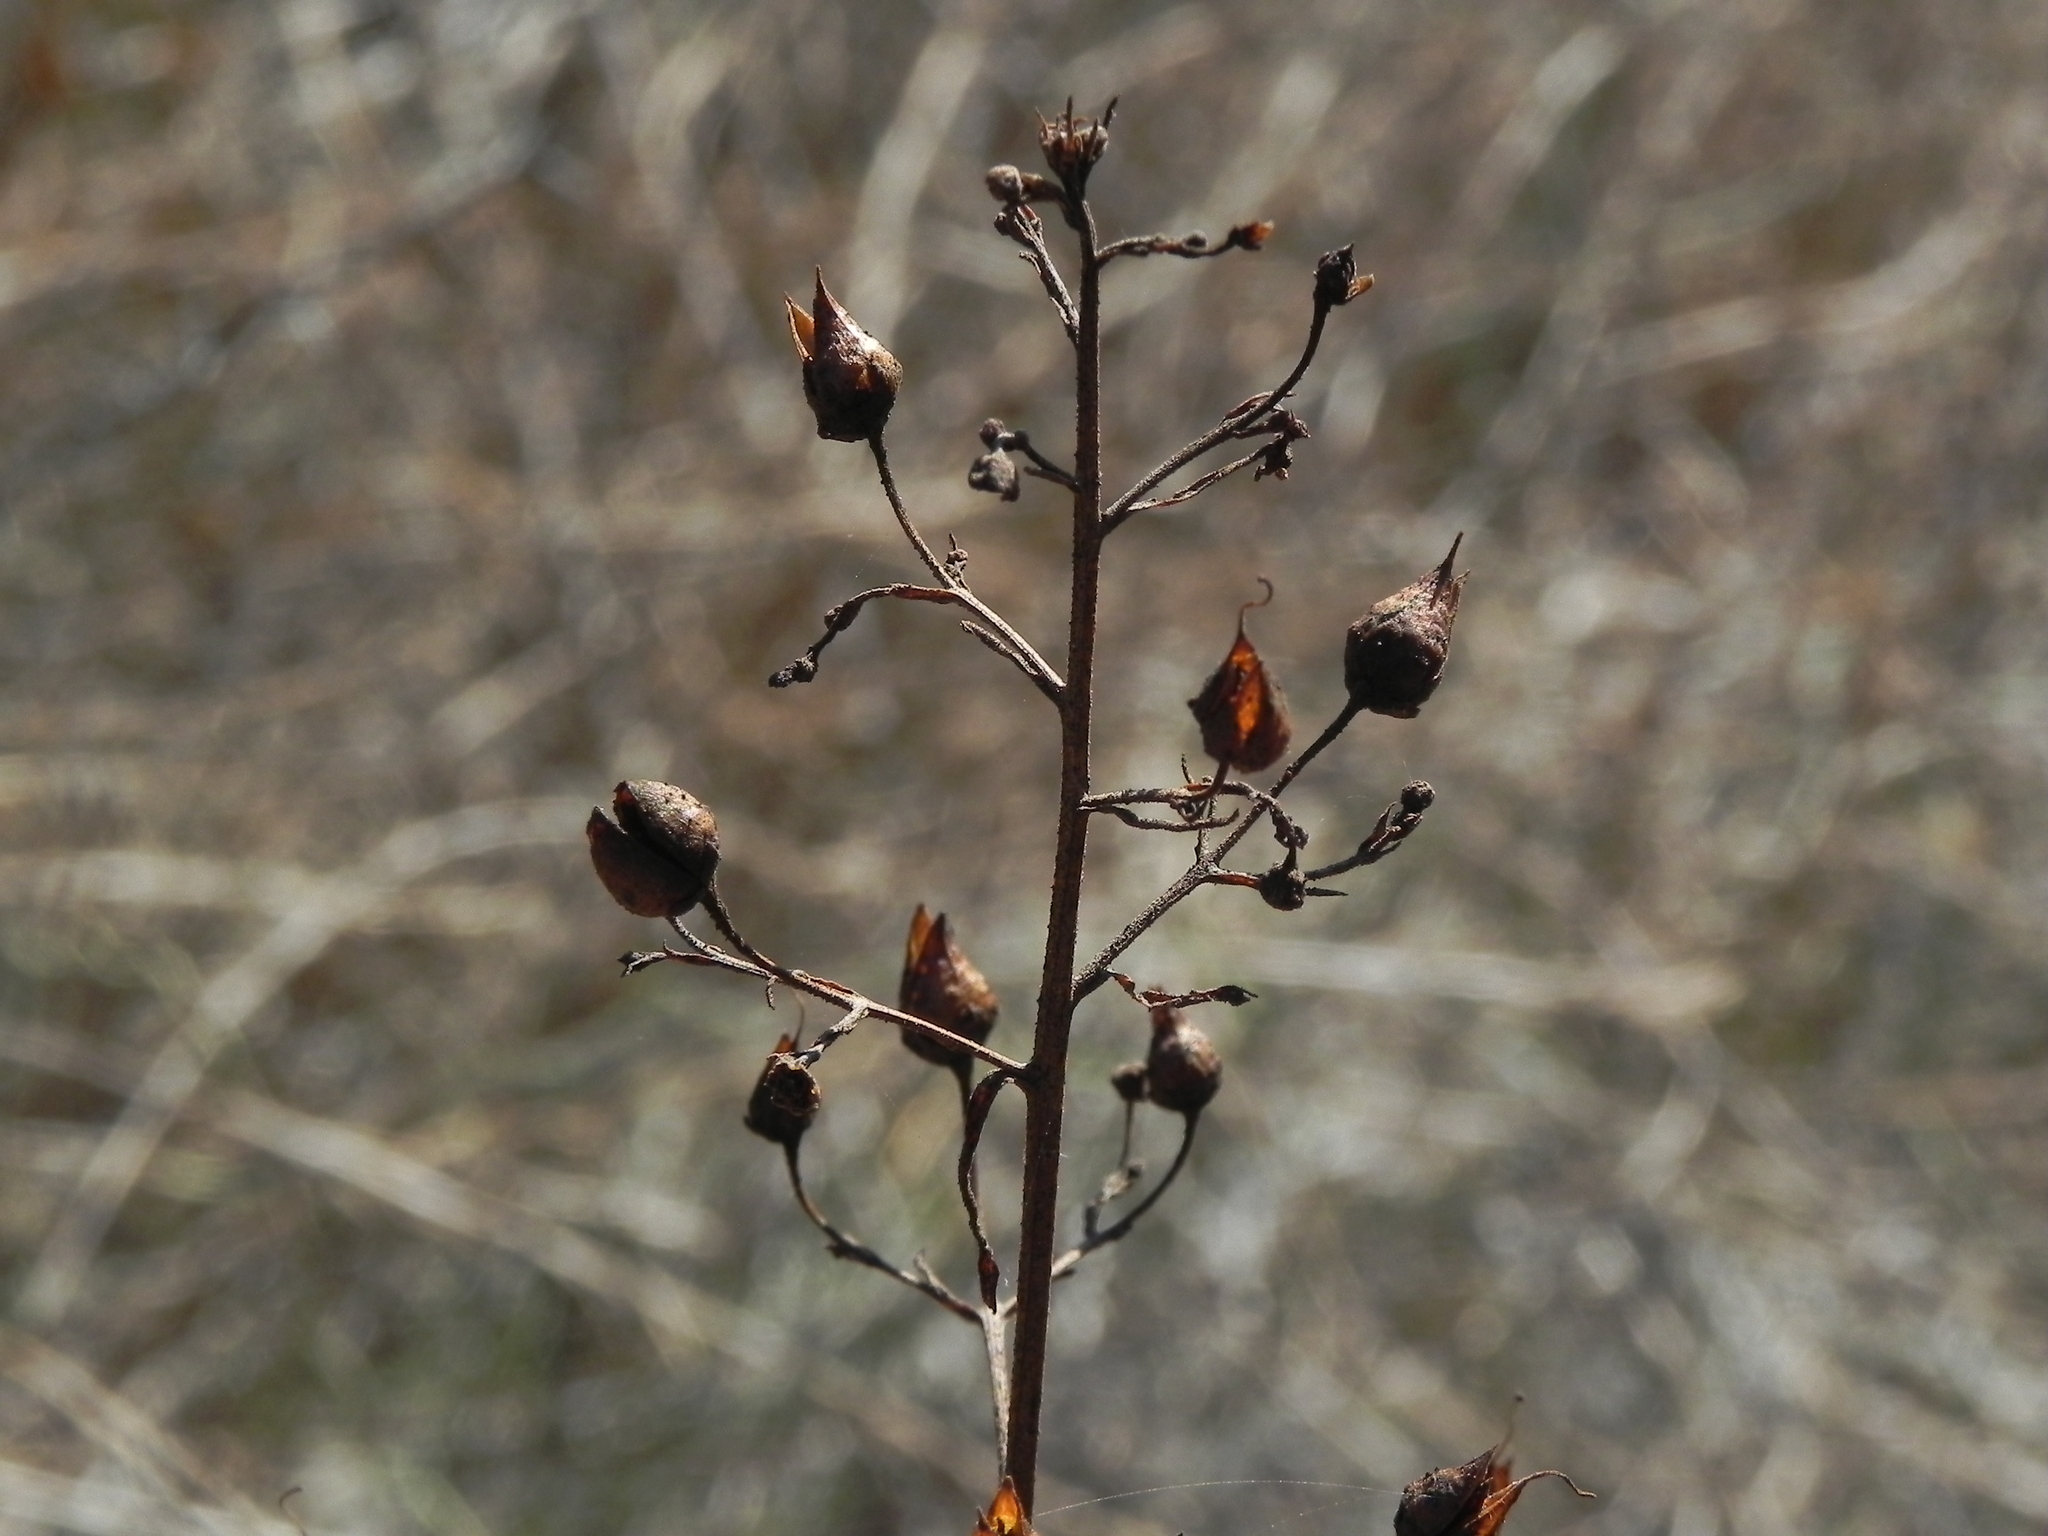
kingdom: Plantae
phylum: Tracheophyta
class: Magnoliopsida
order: Lamiales
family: Scrophulariaceae
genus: Scrophularia
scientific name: Scrophularia californica
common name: California figwort
